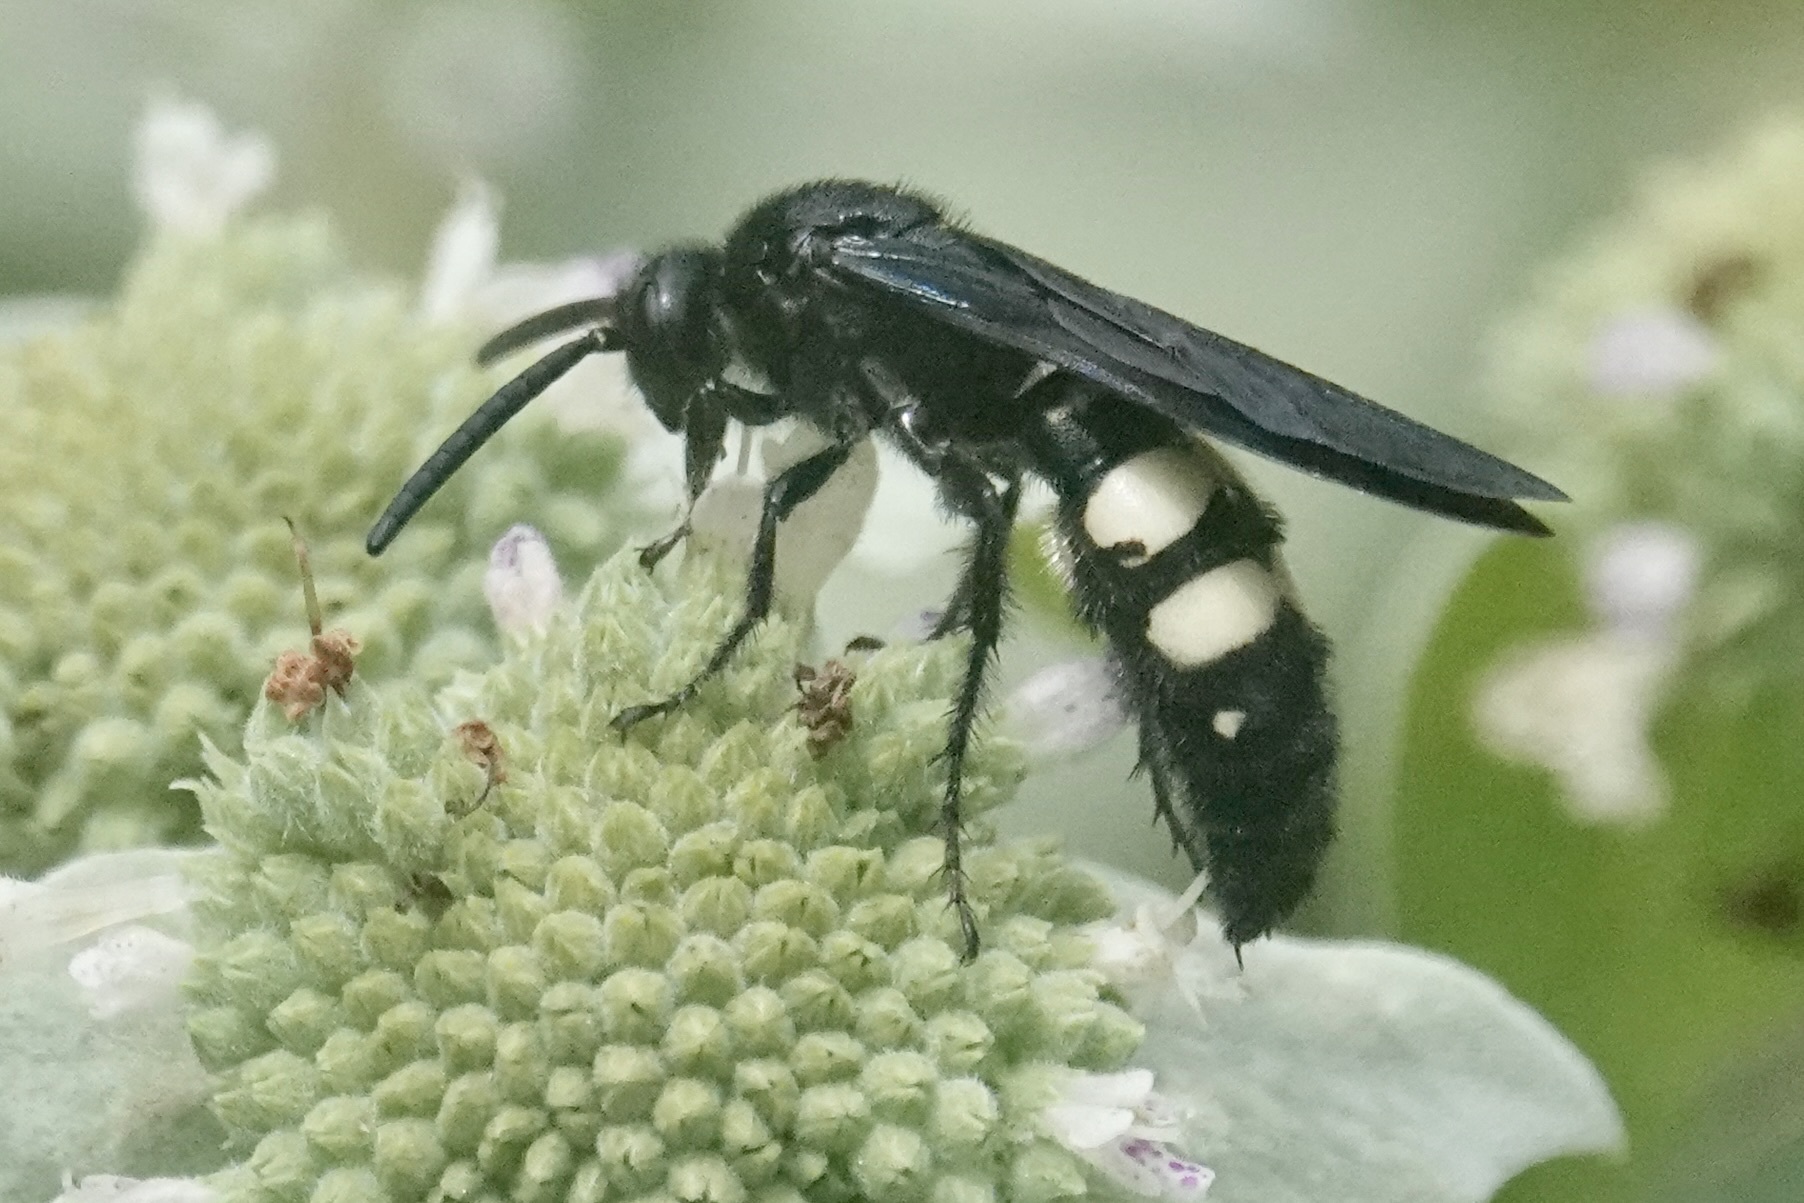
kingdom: Animalia
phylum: Arthropoda
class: Insecta
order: Hymenoptera
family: Scoliidae
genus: Scolia
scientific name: Scolia bicincta
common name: Double-banded scoliid wasp
